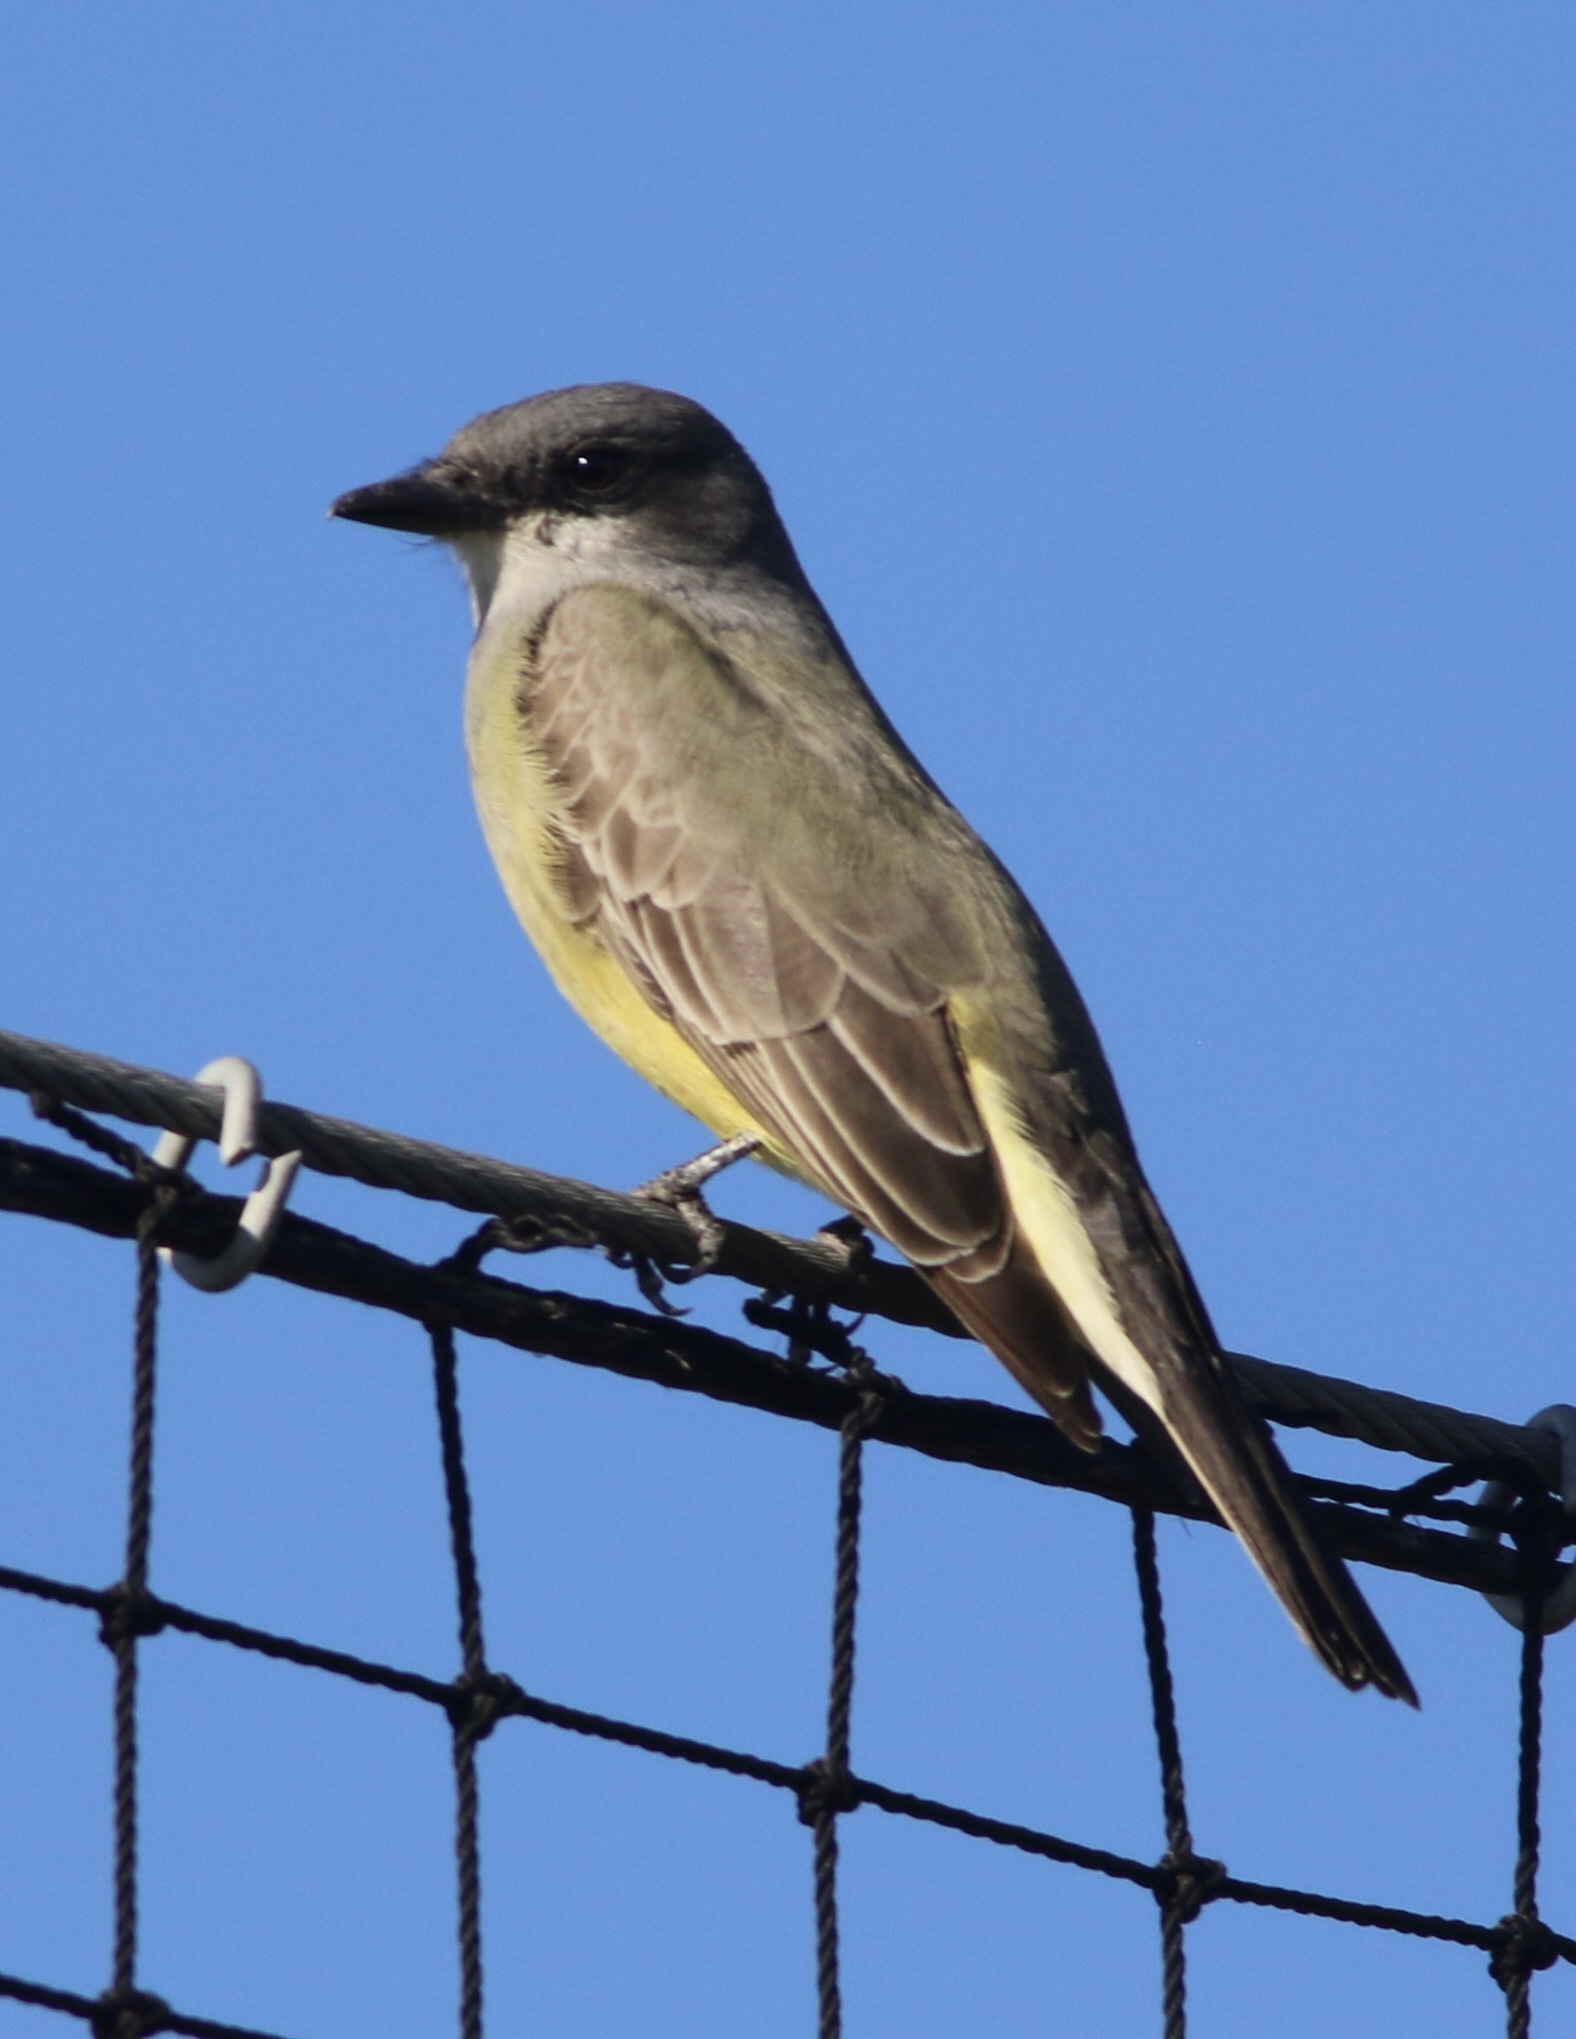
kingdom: Animalia
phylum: Chordata
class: Aves
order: Passeriformes
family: Tyrannidae
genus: Tyrannus
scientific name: Tyrannus vociferans
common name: Cassin's kingbird
